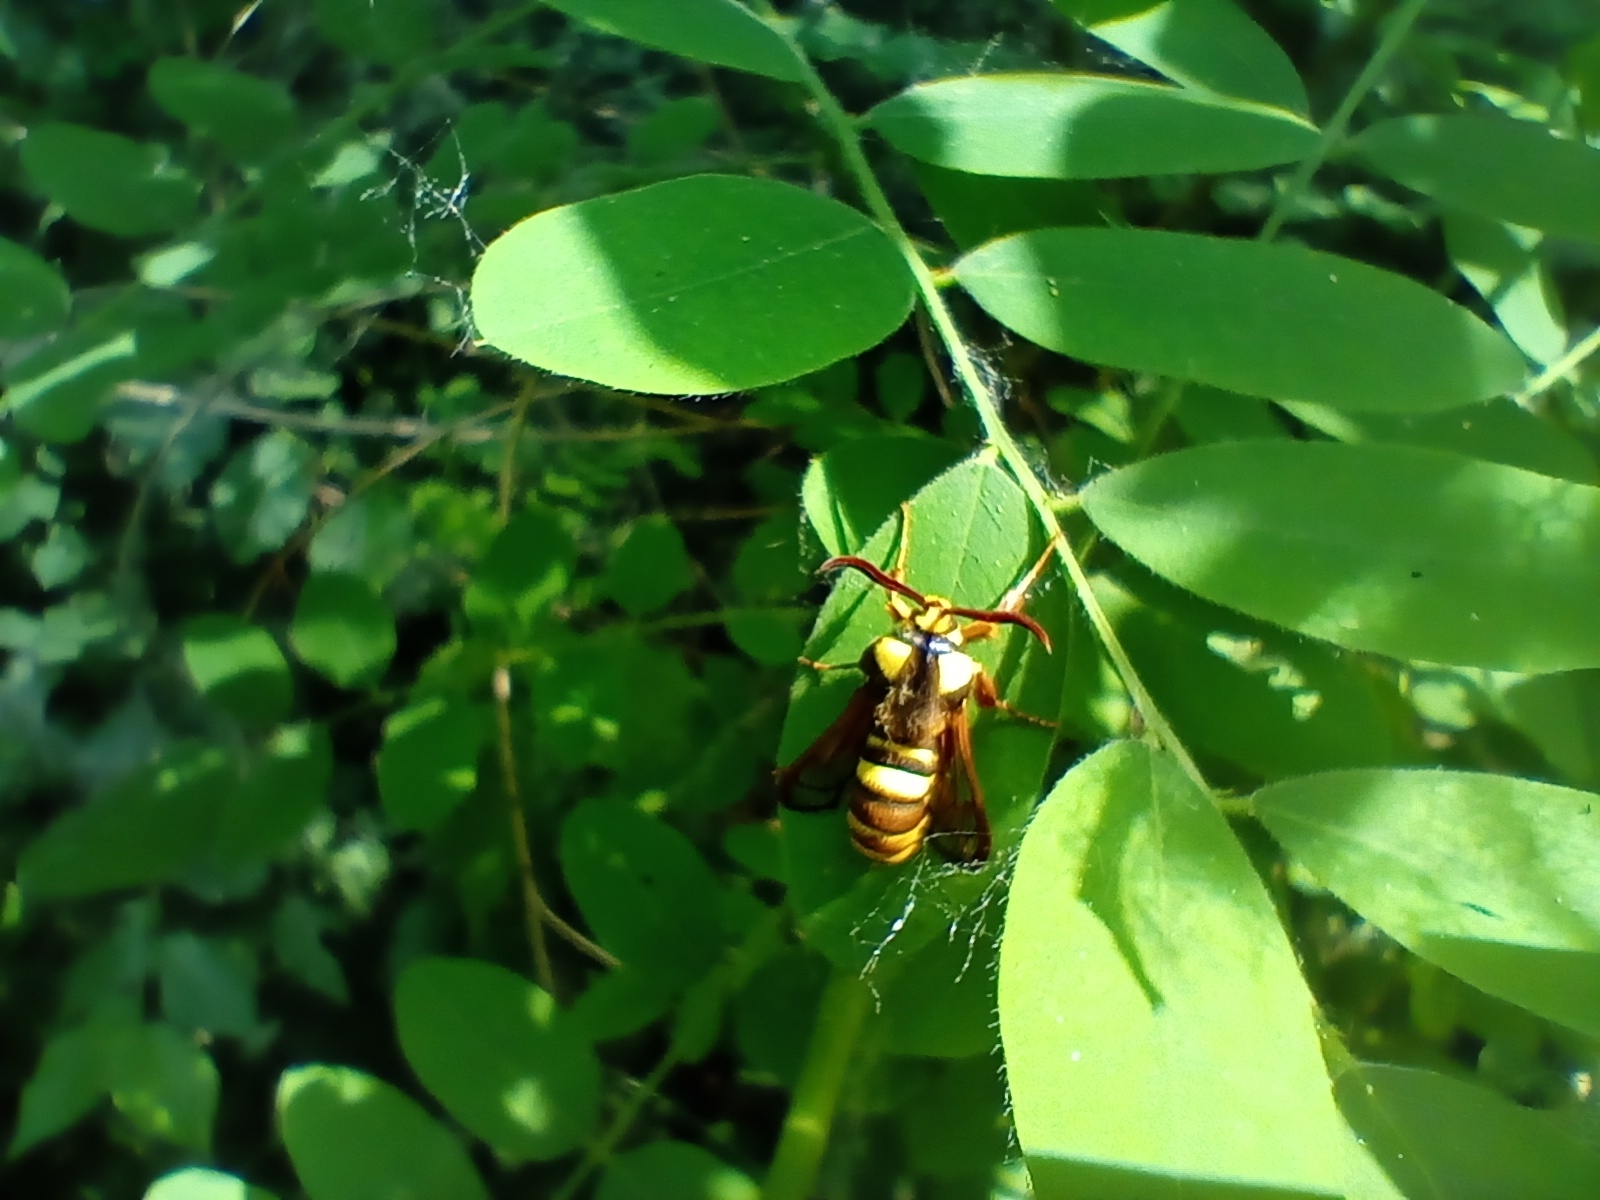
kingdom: Animalia
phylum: Arthropoda
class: Insecta
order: Lepidoptera
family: Sesiidae
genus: Sesia
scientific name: Sesia apiformis
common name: Hornet moth
